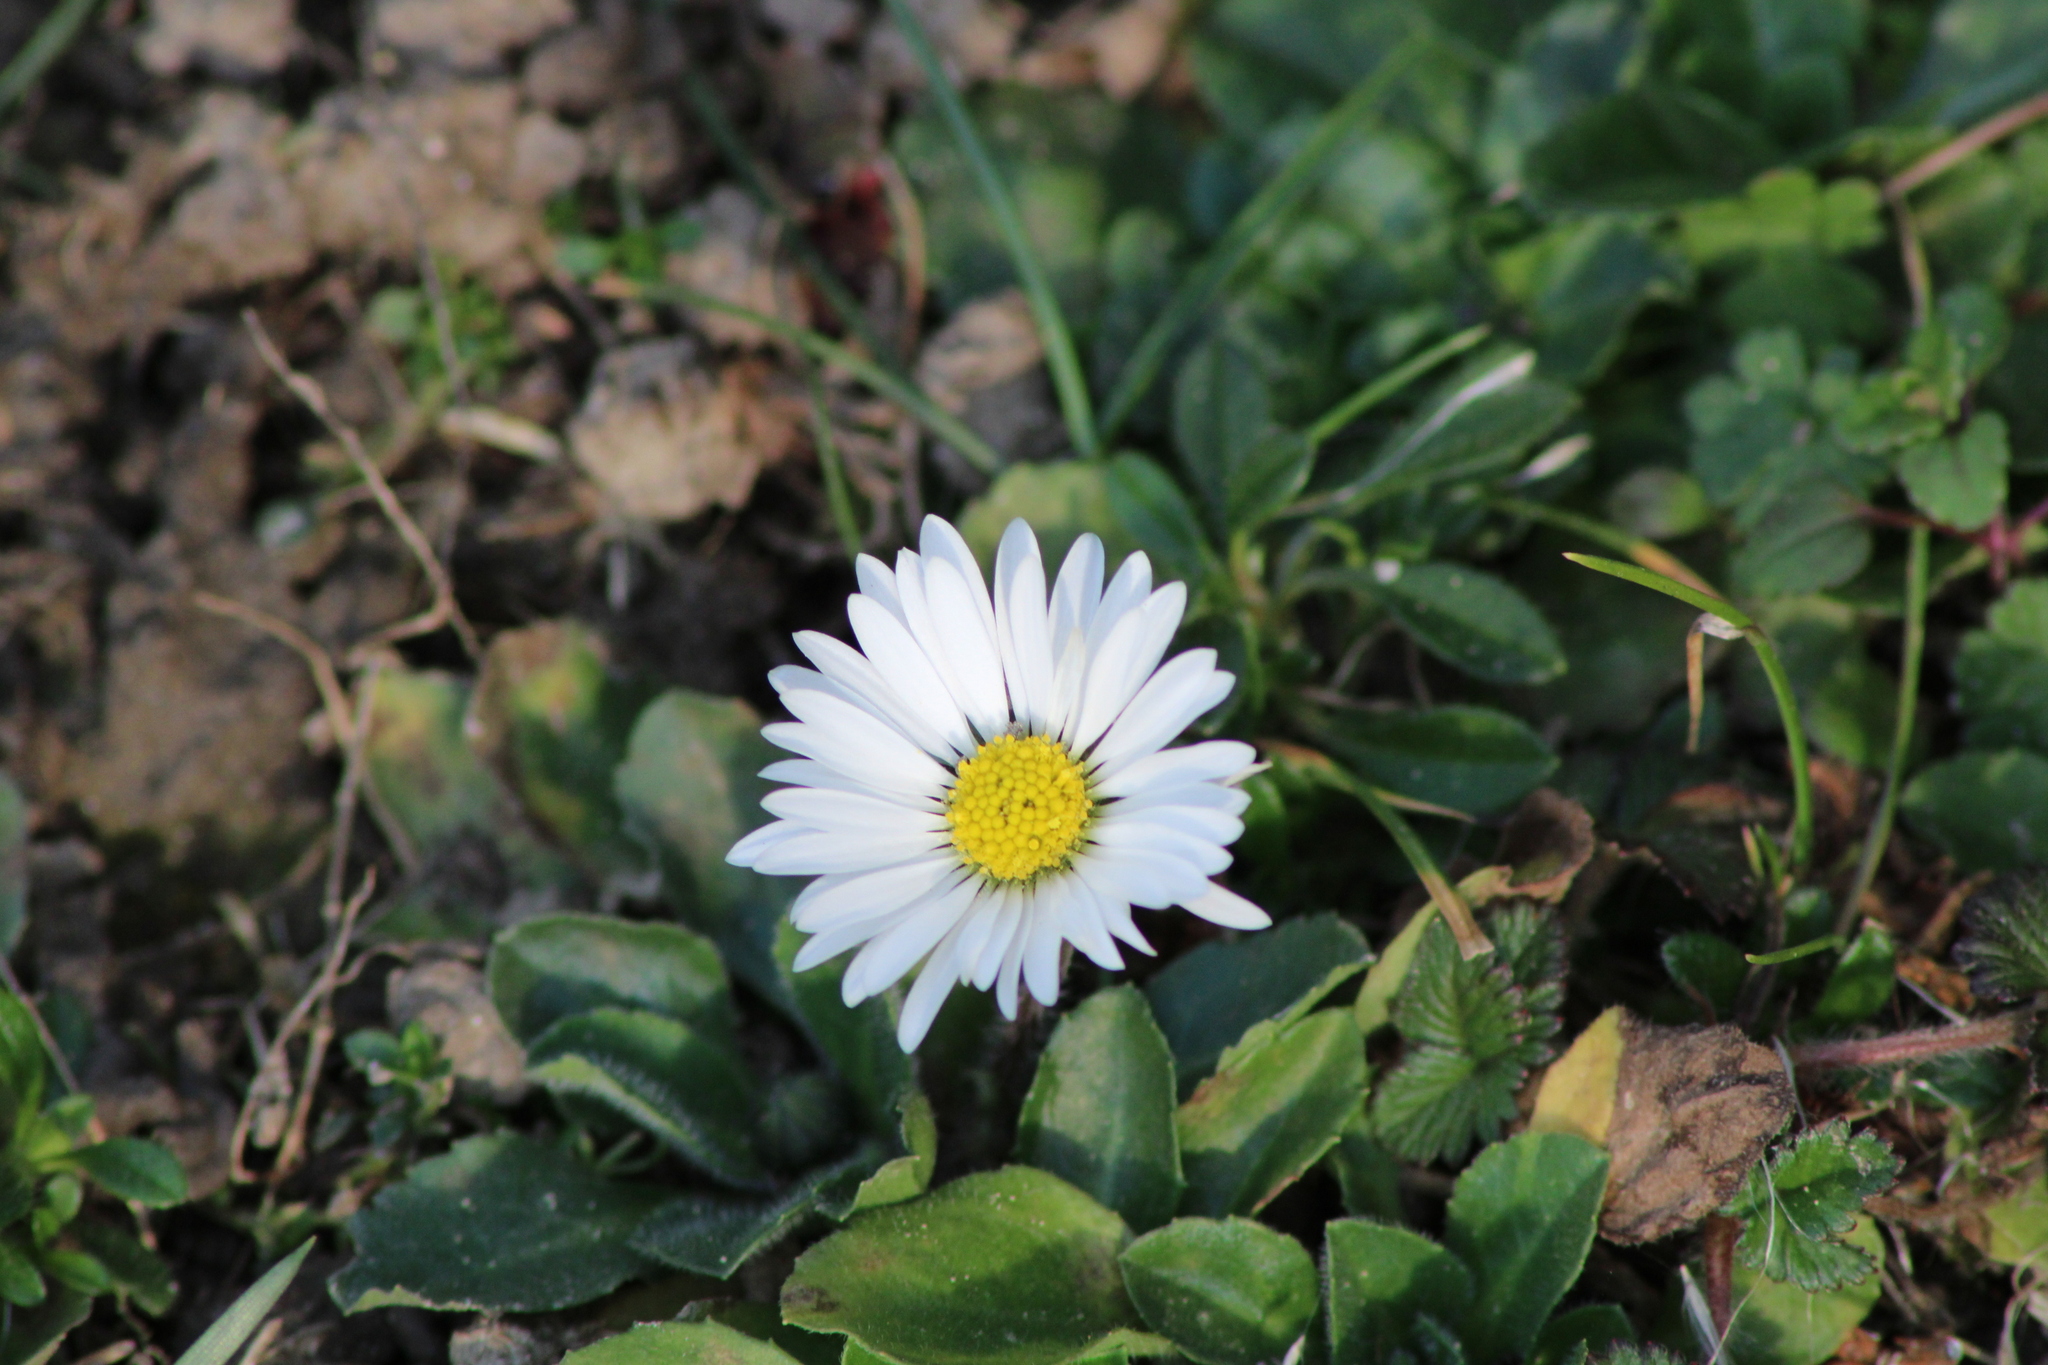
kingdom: Plantae
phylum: Tracheophyta
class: Magnoliopsida
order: Asterales
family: Asteraceae
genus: Bellis
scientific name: Bellis perennis
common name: Lawndaisy
